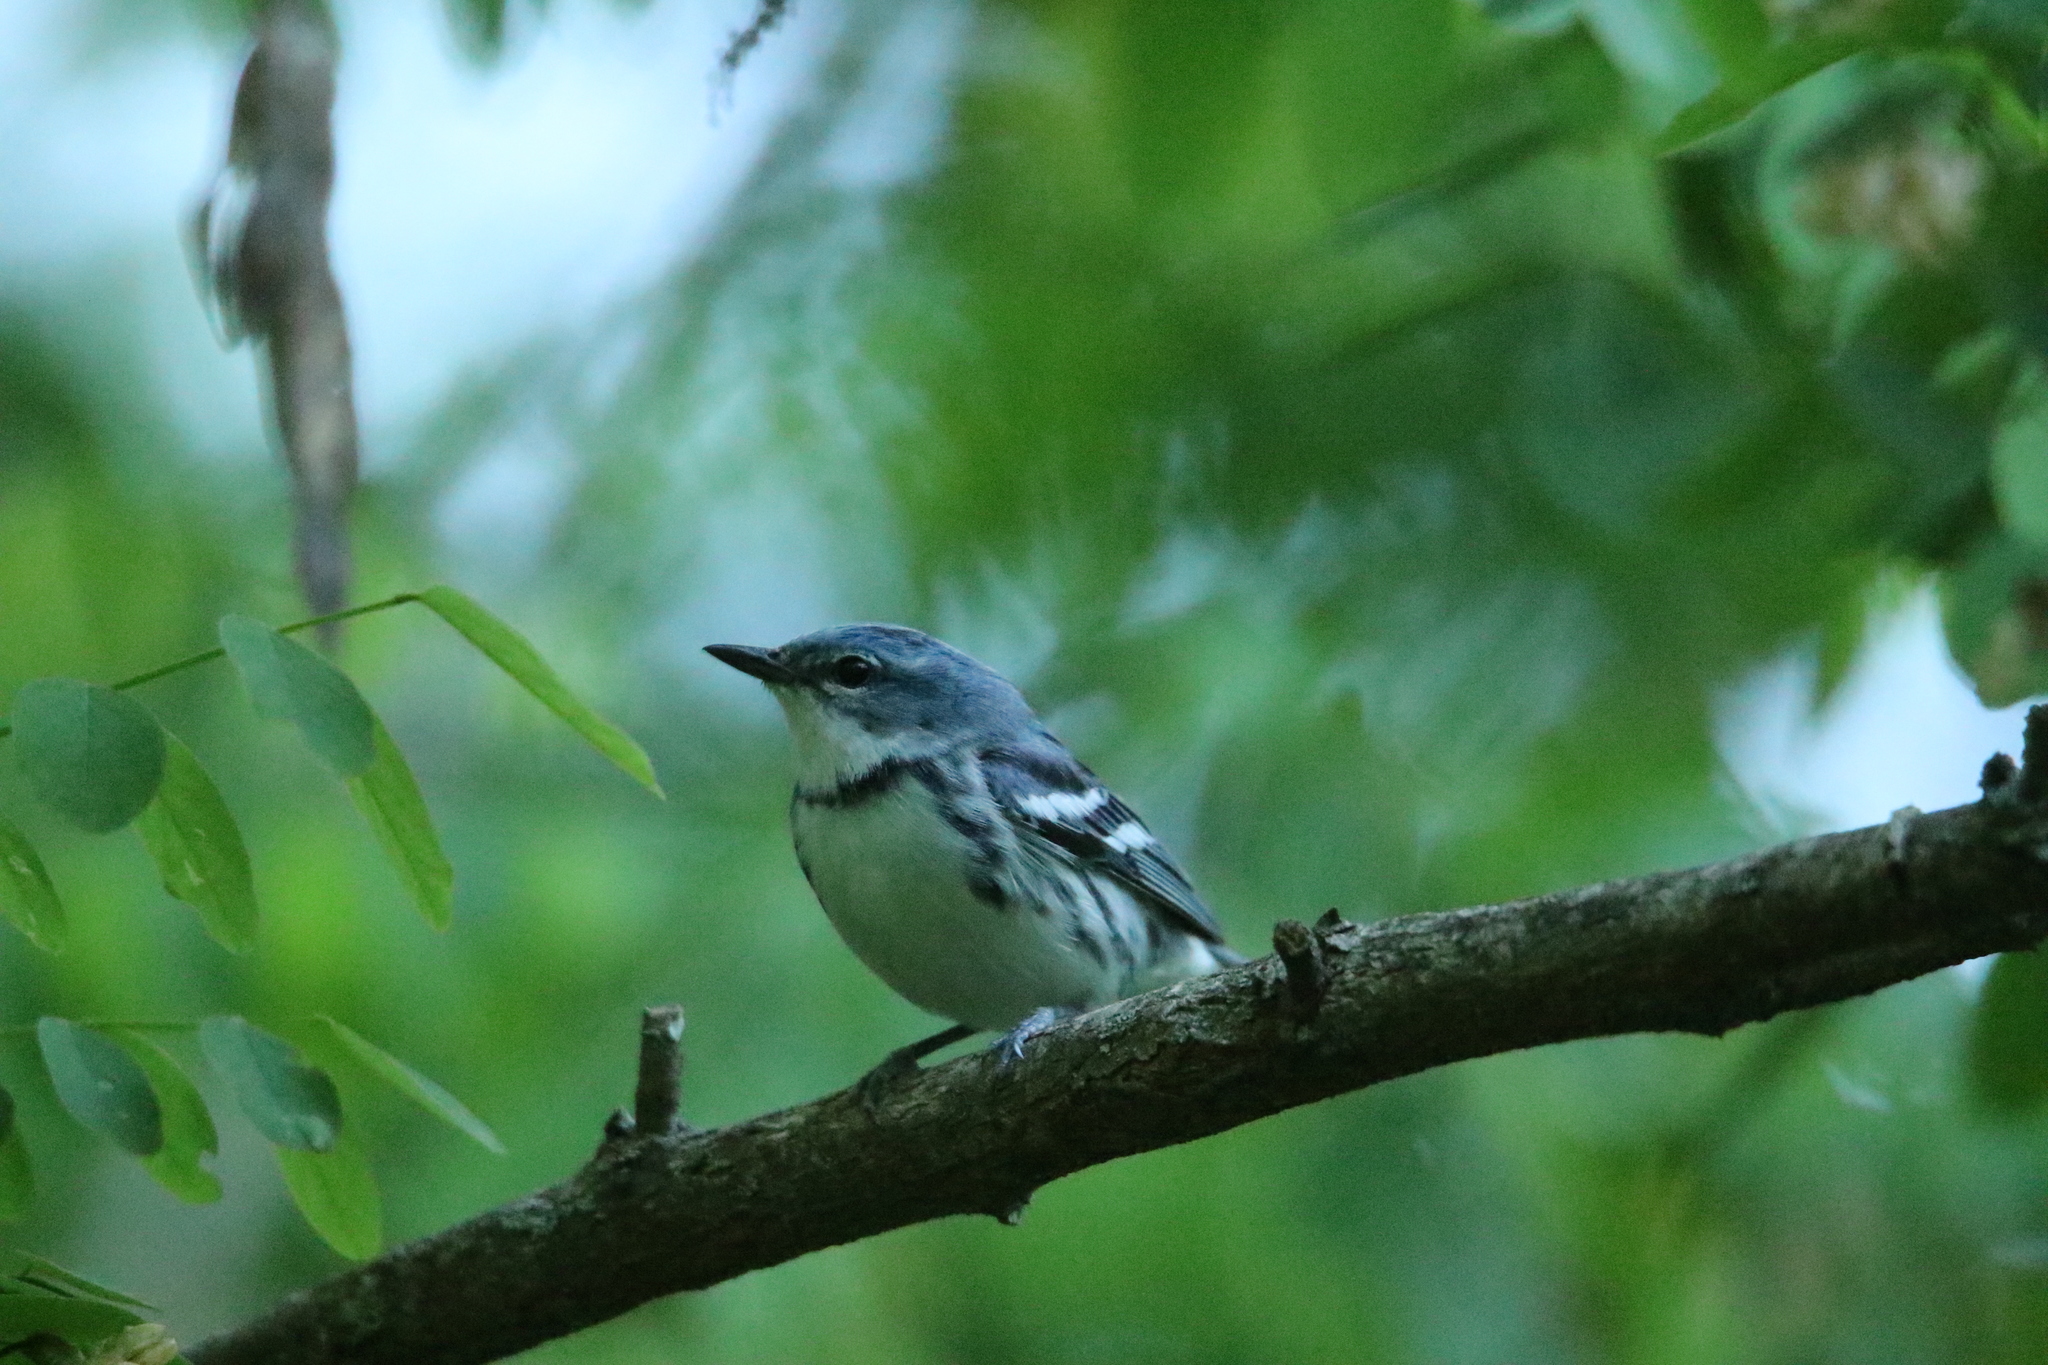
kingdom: Animalia
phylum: Chordata
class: Aves
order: Passeriformes
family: Parulidae
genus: Setophaga
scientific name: Setophaga cerulea
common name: Cerulean warbler
